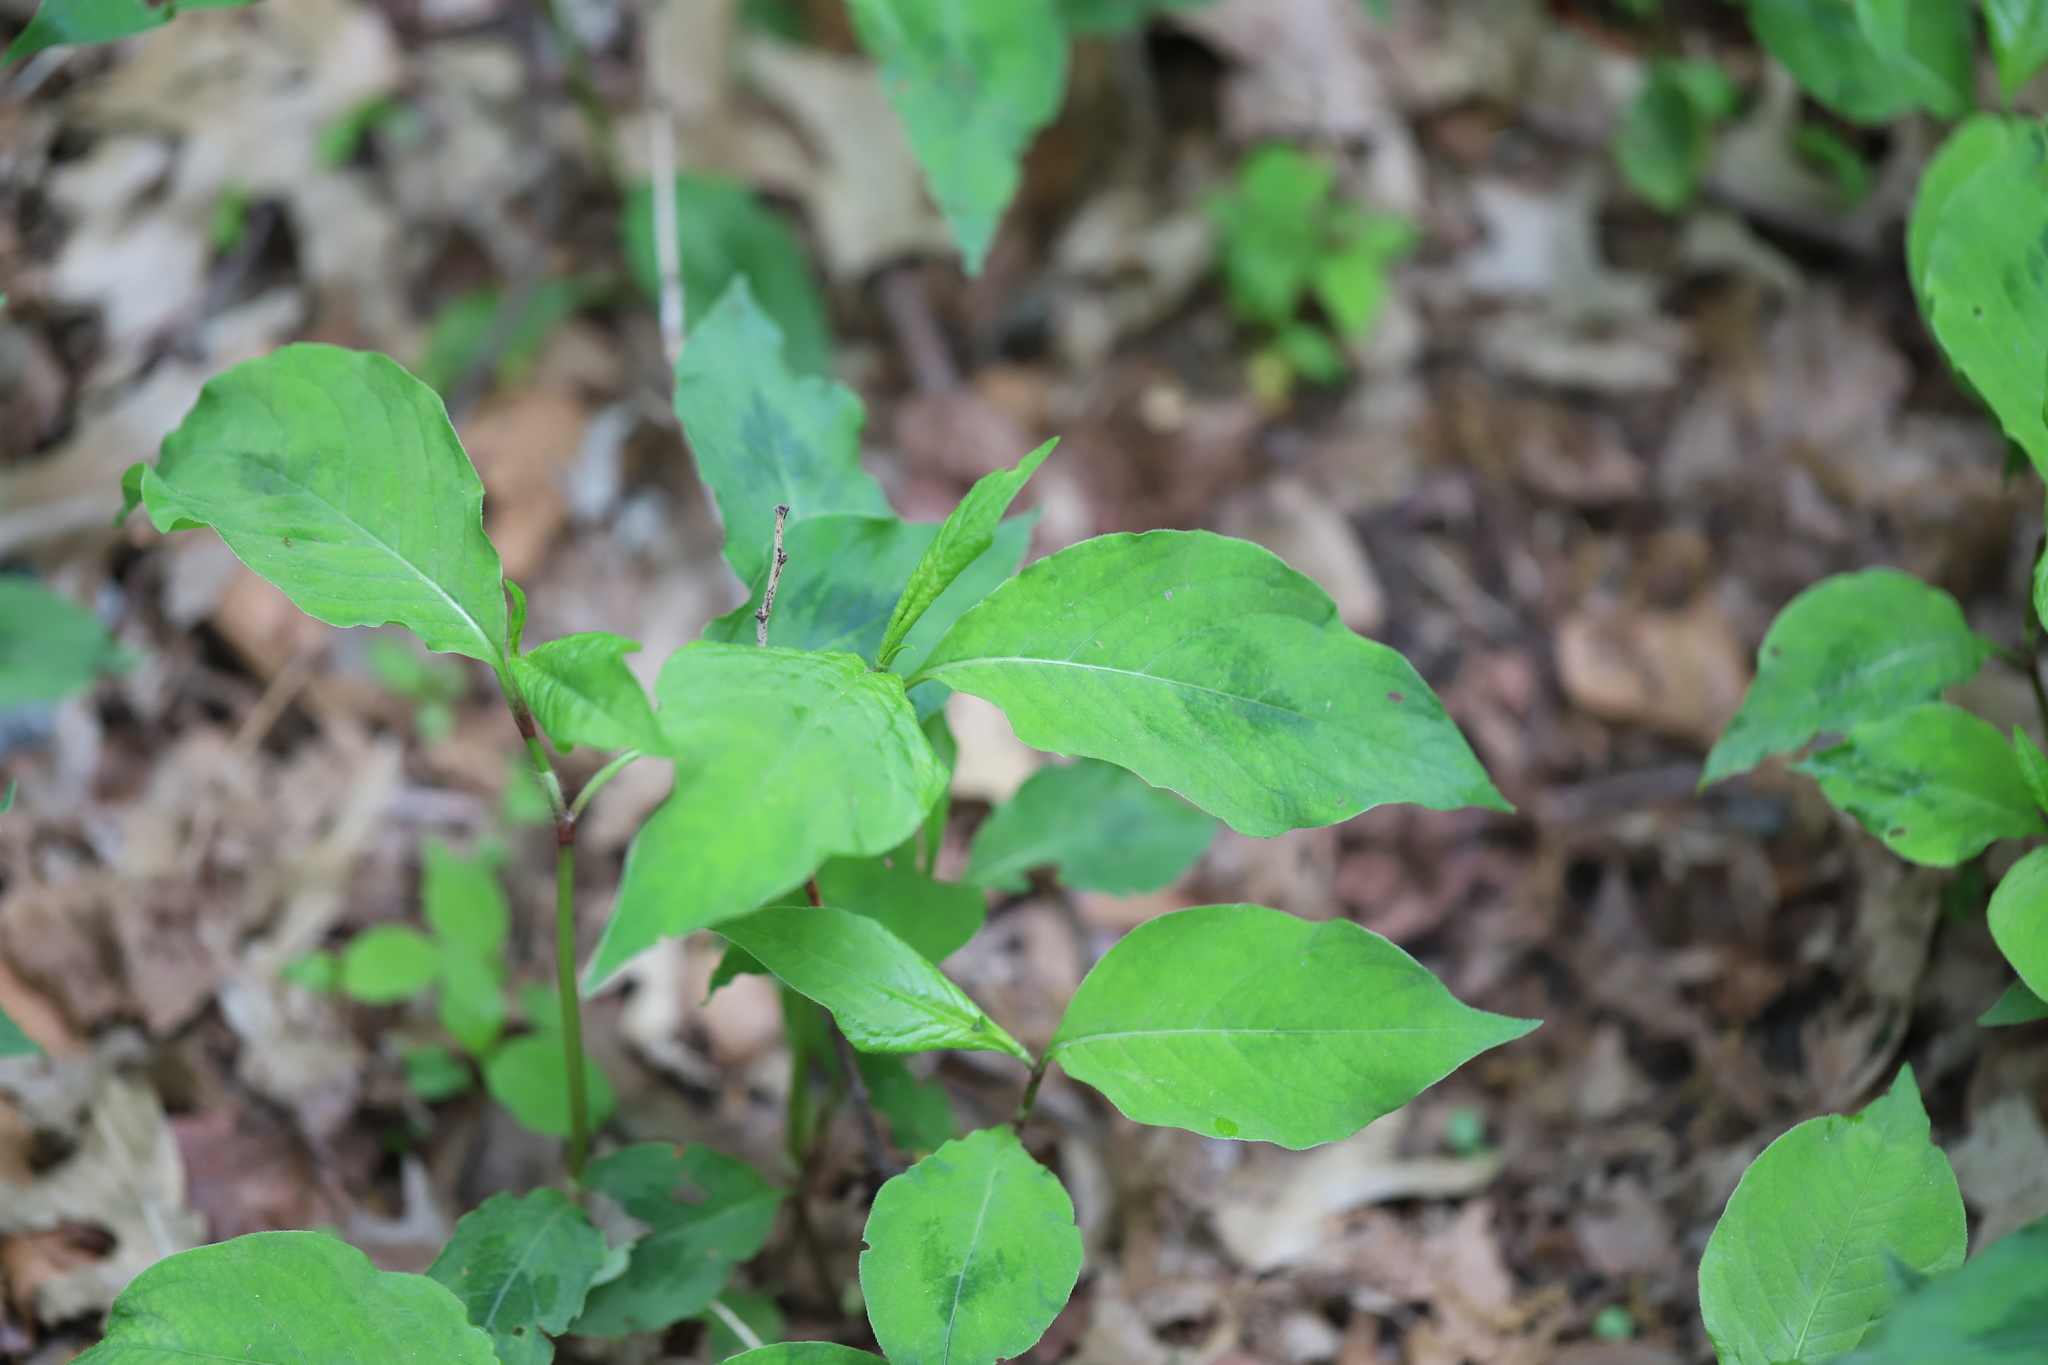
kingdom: Plantae
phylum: Tracheophyta
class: Magnoliopsida
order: Caryophyllales
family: Polygonaceae
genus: Persicaria
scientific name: Persicaria virginiana
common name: Jumpseed
